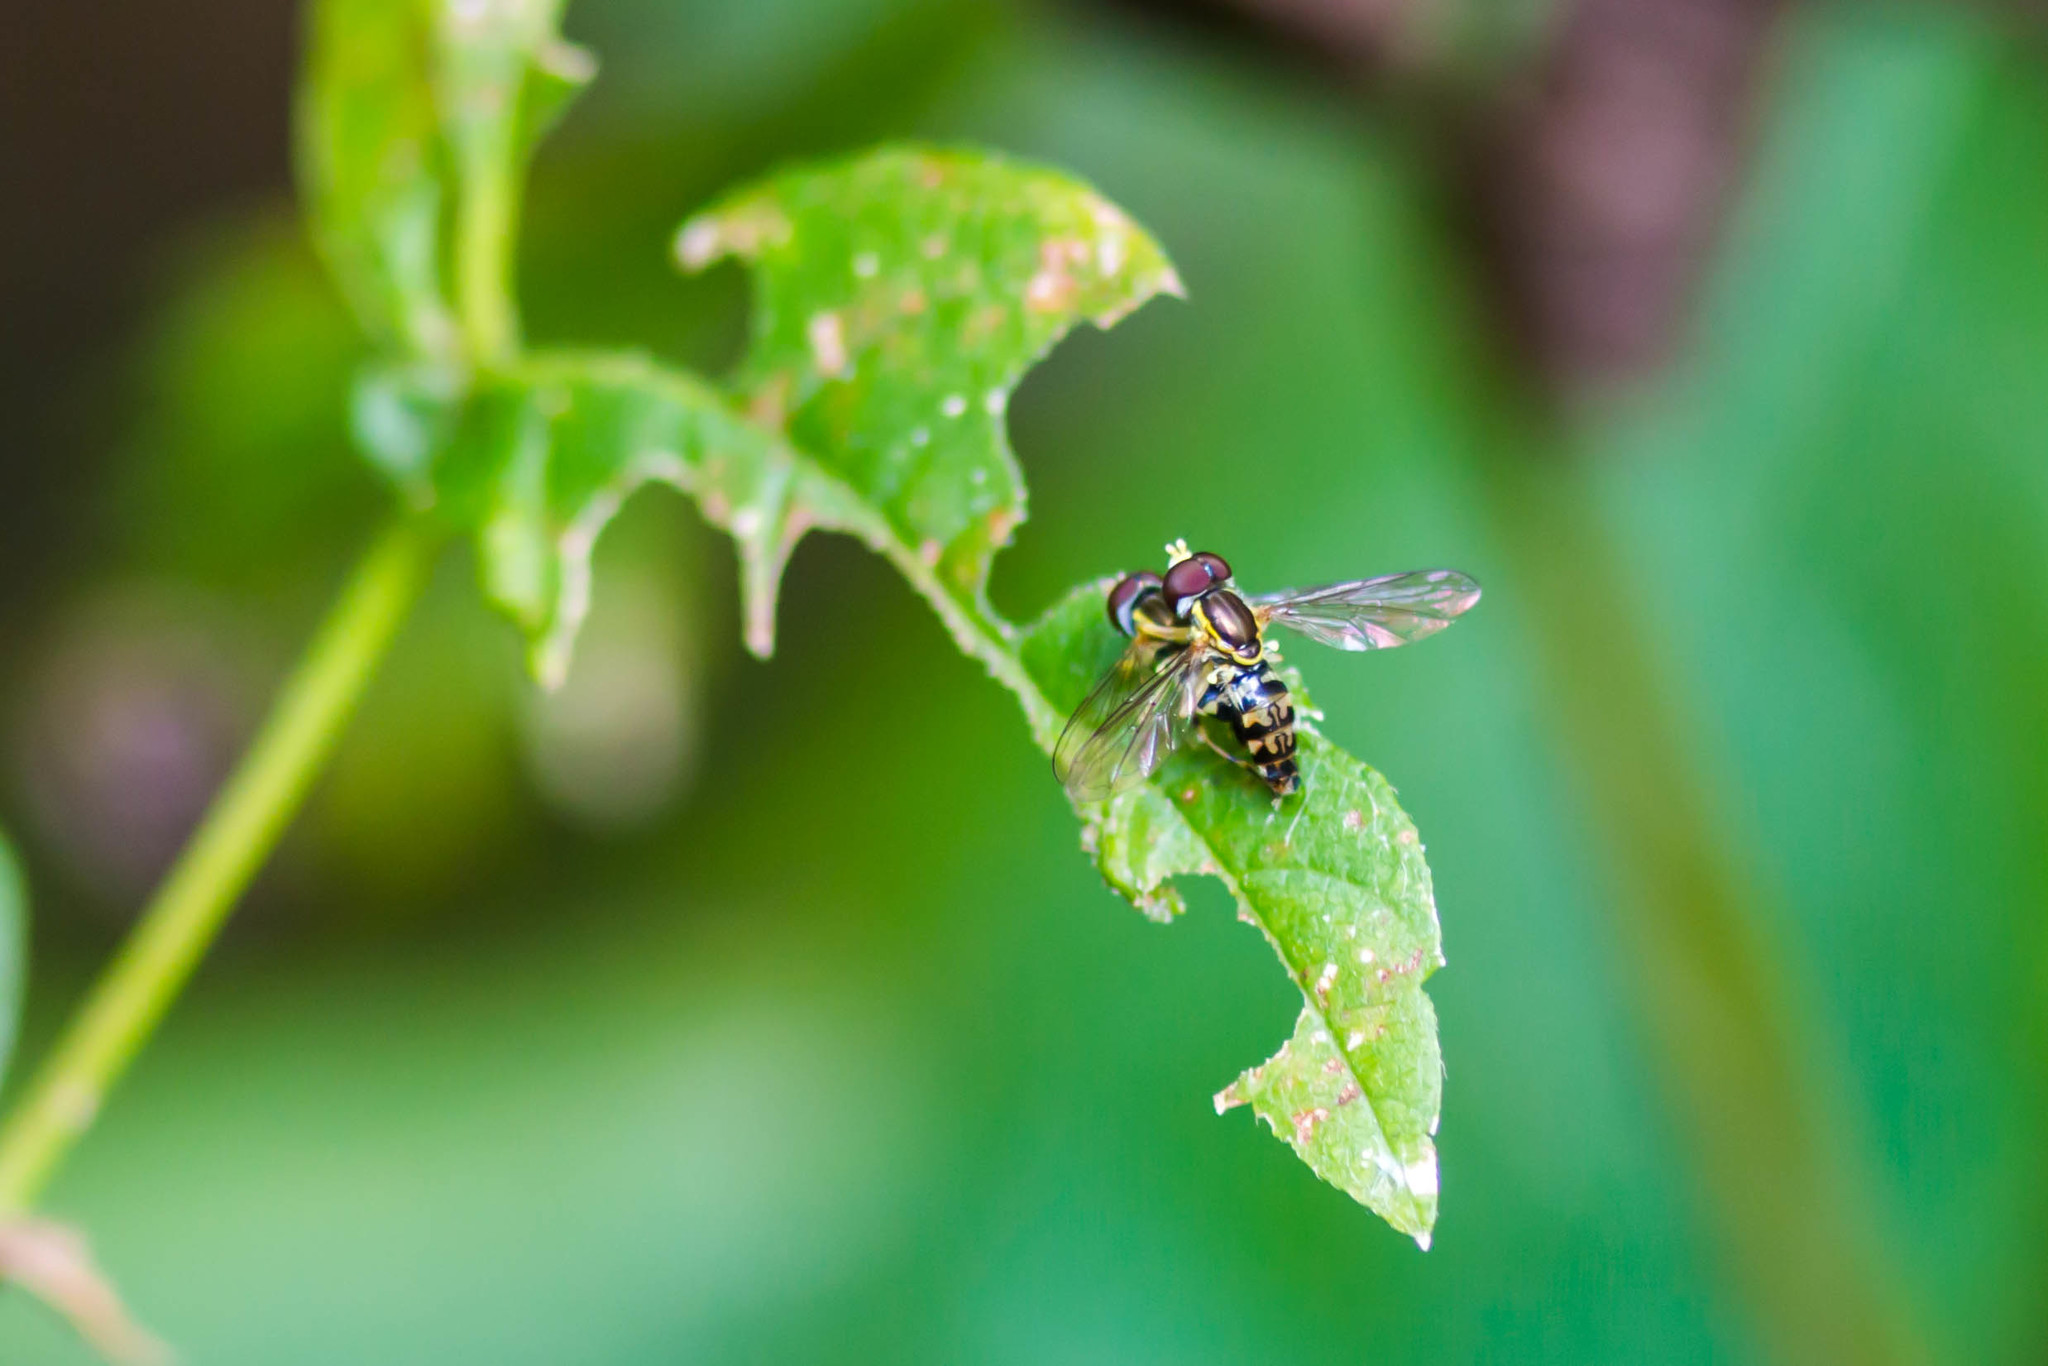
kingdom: Animalia
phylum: Arthropoda
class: Insecta
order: Diptera
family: Syrphidae
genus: Toxomerus
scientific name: Toxomerus geminatus
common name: Eastern calligrapher
